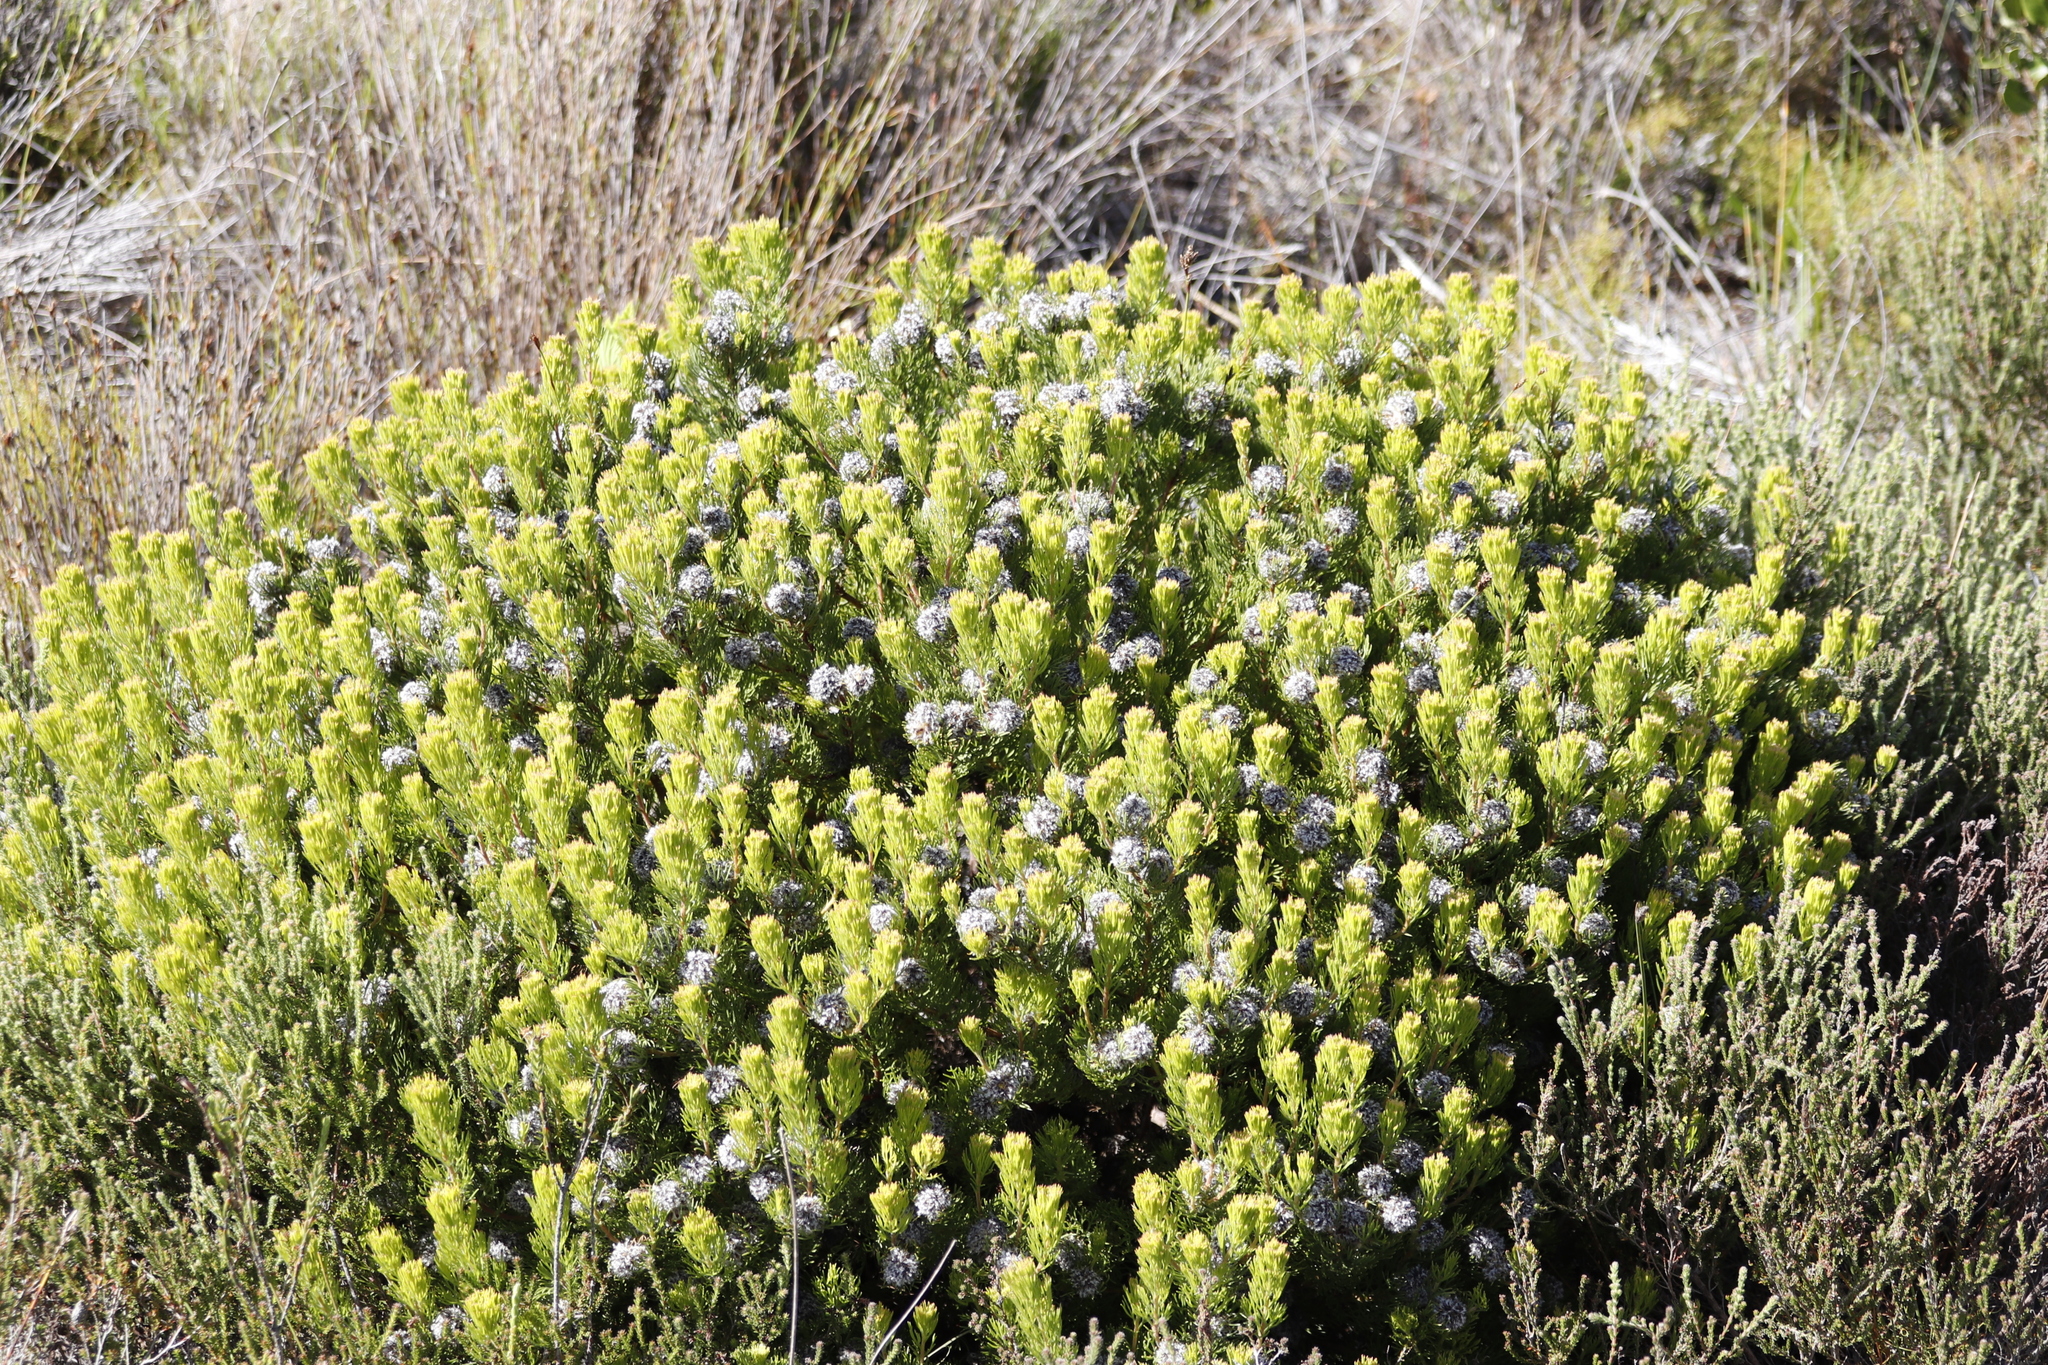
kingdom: Plantae
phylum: Tracheophyta
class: Magnoliopsida
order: Proteales
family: Proteaceae
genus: Serruria
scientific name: Serruria villosa
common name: Golden spiderhead
